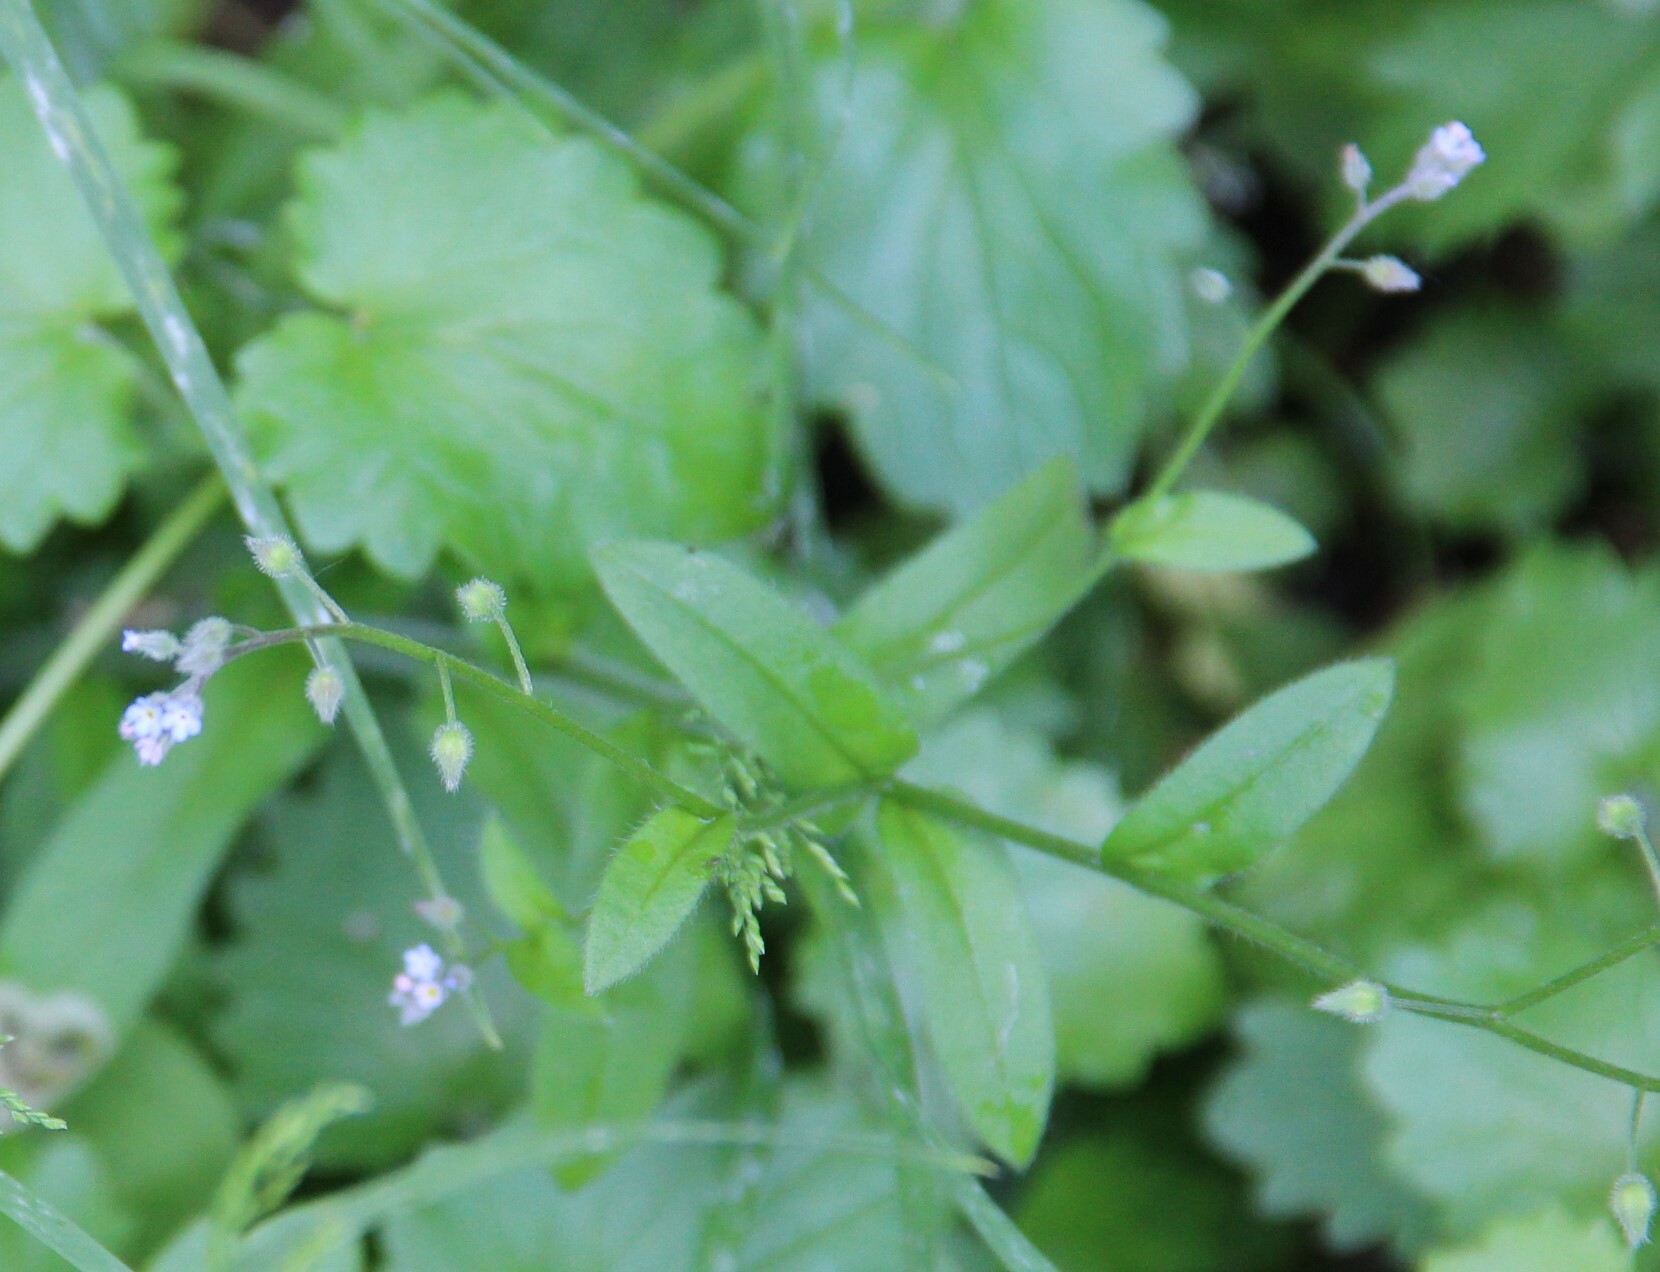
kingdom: Plantae
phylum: Tracheophyta
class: Magnoliopsida
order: Boraginales
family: Boraginaceae
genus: Myosotis
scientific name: Myosotis arvensis
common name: Field forget-me-not
